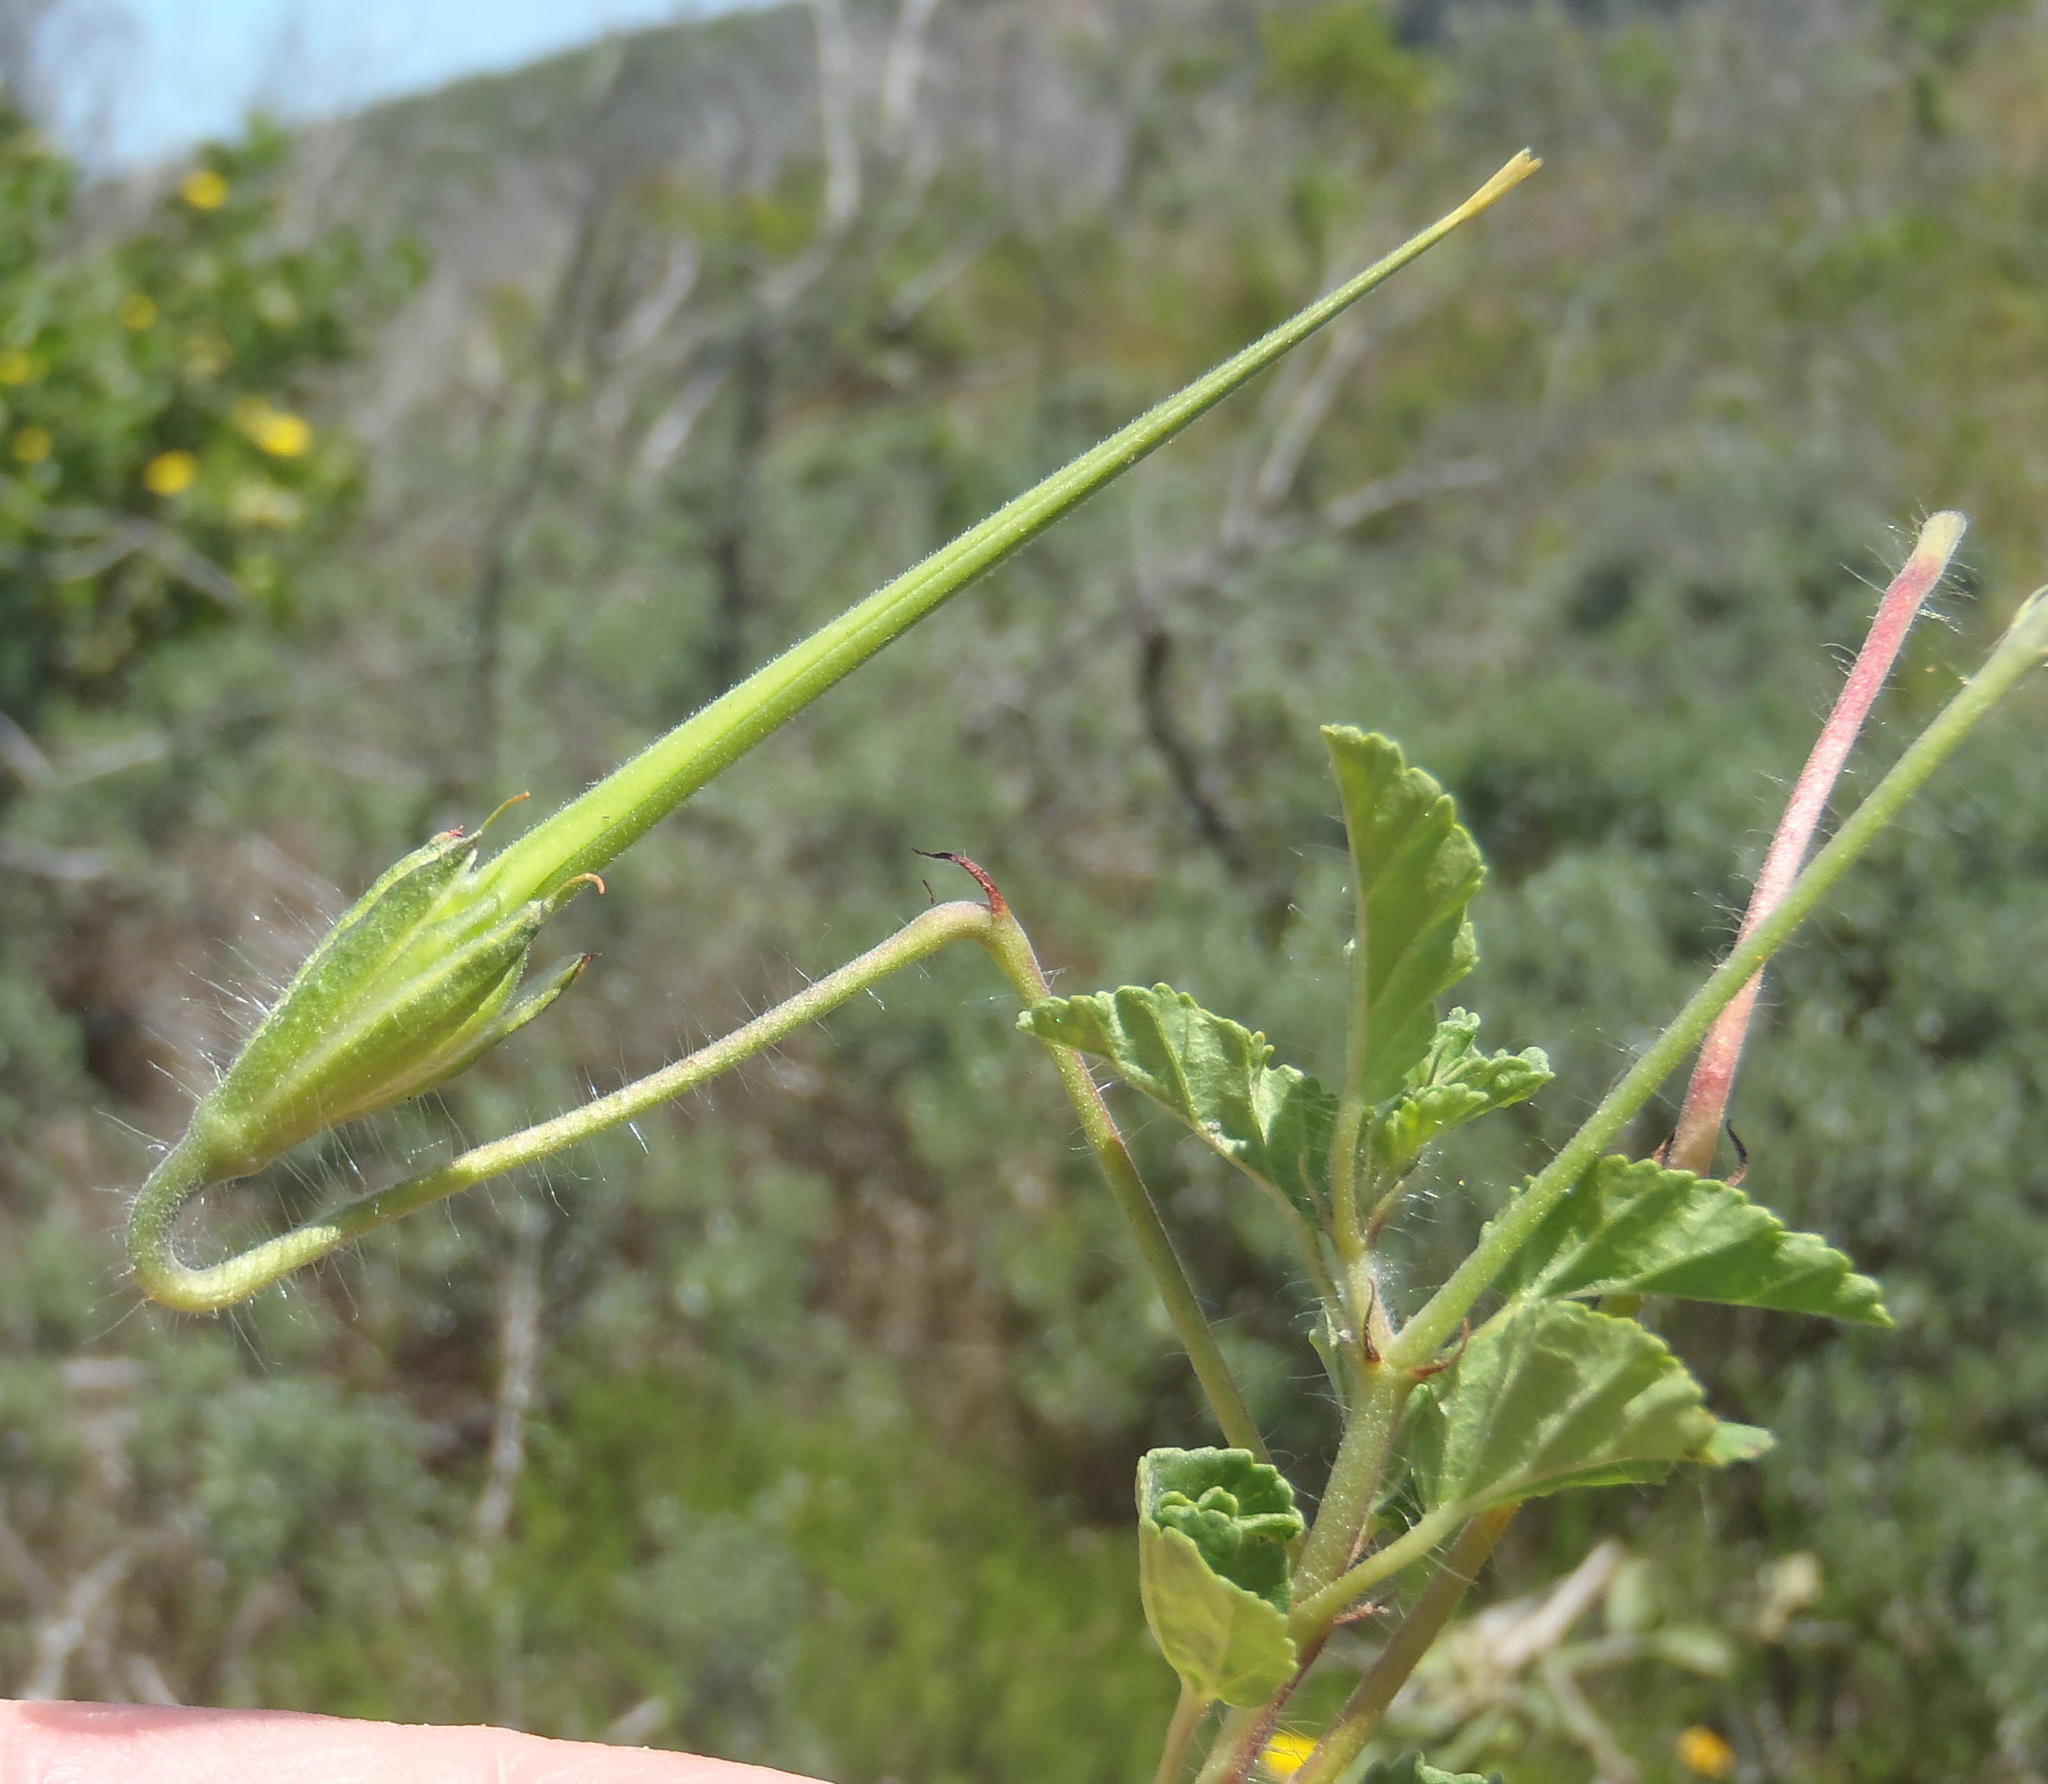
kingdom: Plantae
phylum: Tracheophyta
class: Magnoliopsida
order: Geraniales
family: Geraniaceae
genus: Monsonia
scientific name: Monsonia emarginata
